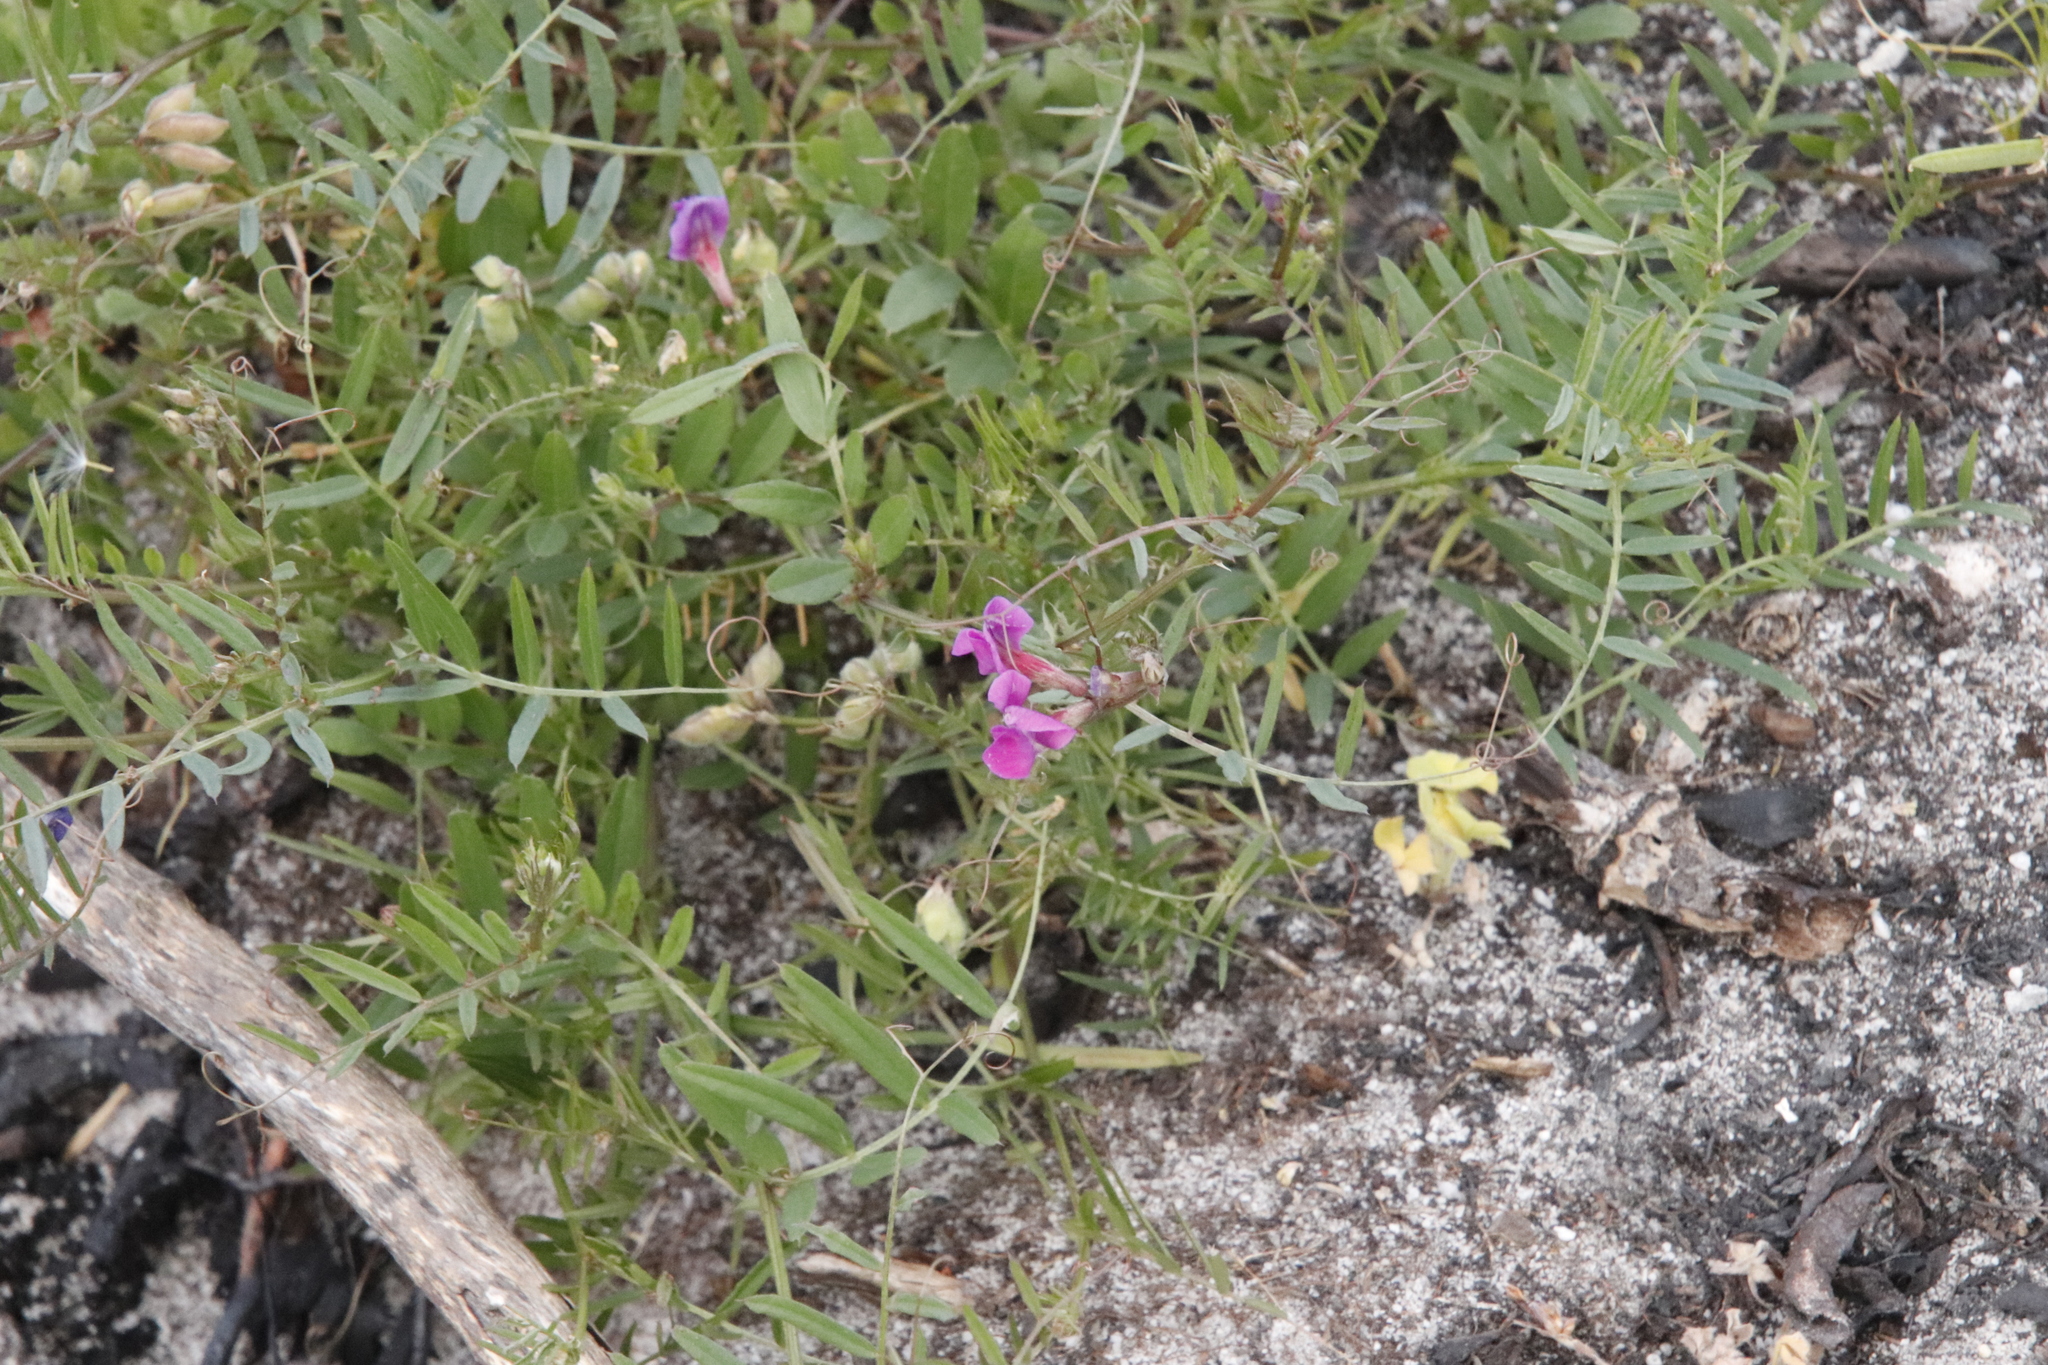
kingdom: Plantae
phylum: Tracheophyta
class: Magnoliopsida
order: Fabales
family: Fabaceae
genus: Vicia
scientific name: Vicia sativa
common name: Garden vetch
